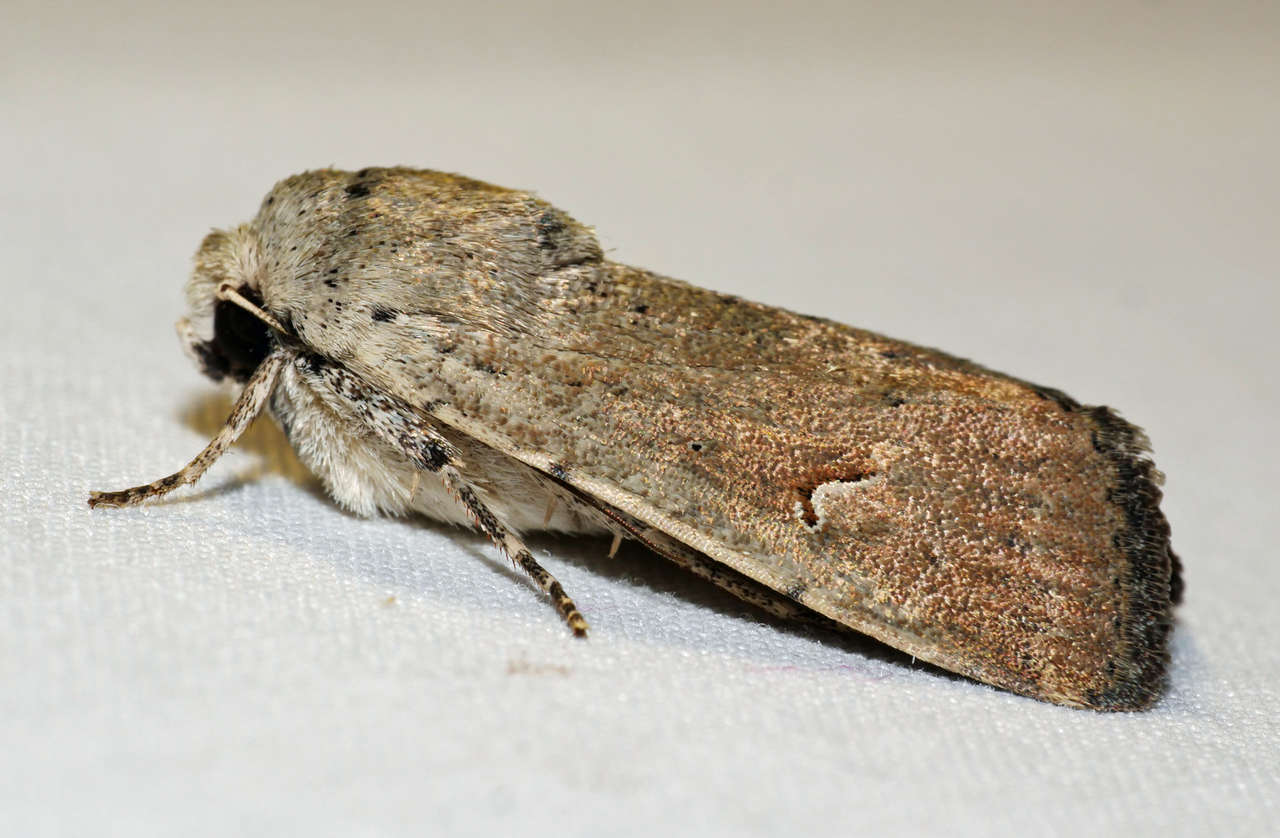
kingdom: Animalia
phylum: Arthropoda
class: Insecta
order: Lepidoptera
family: Noctuidae
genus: Proteuxoa
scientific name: Proteuxoa paratorna
